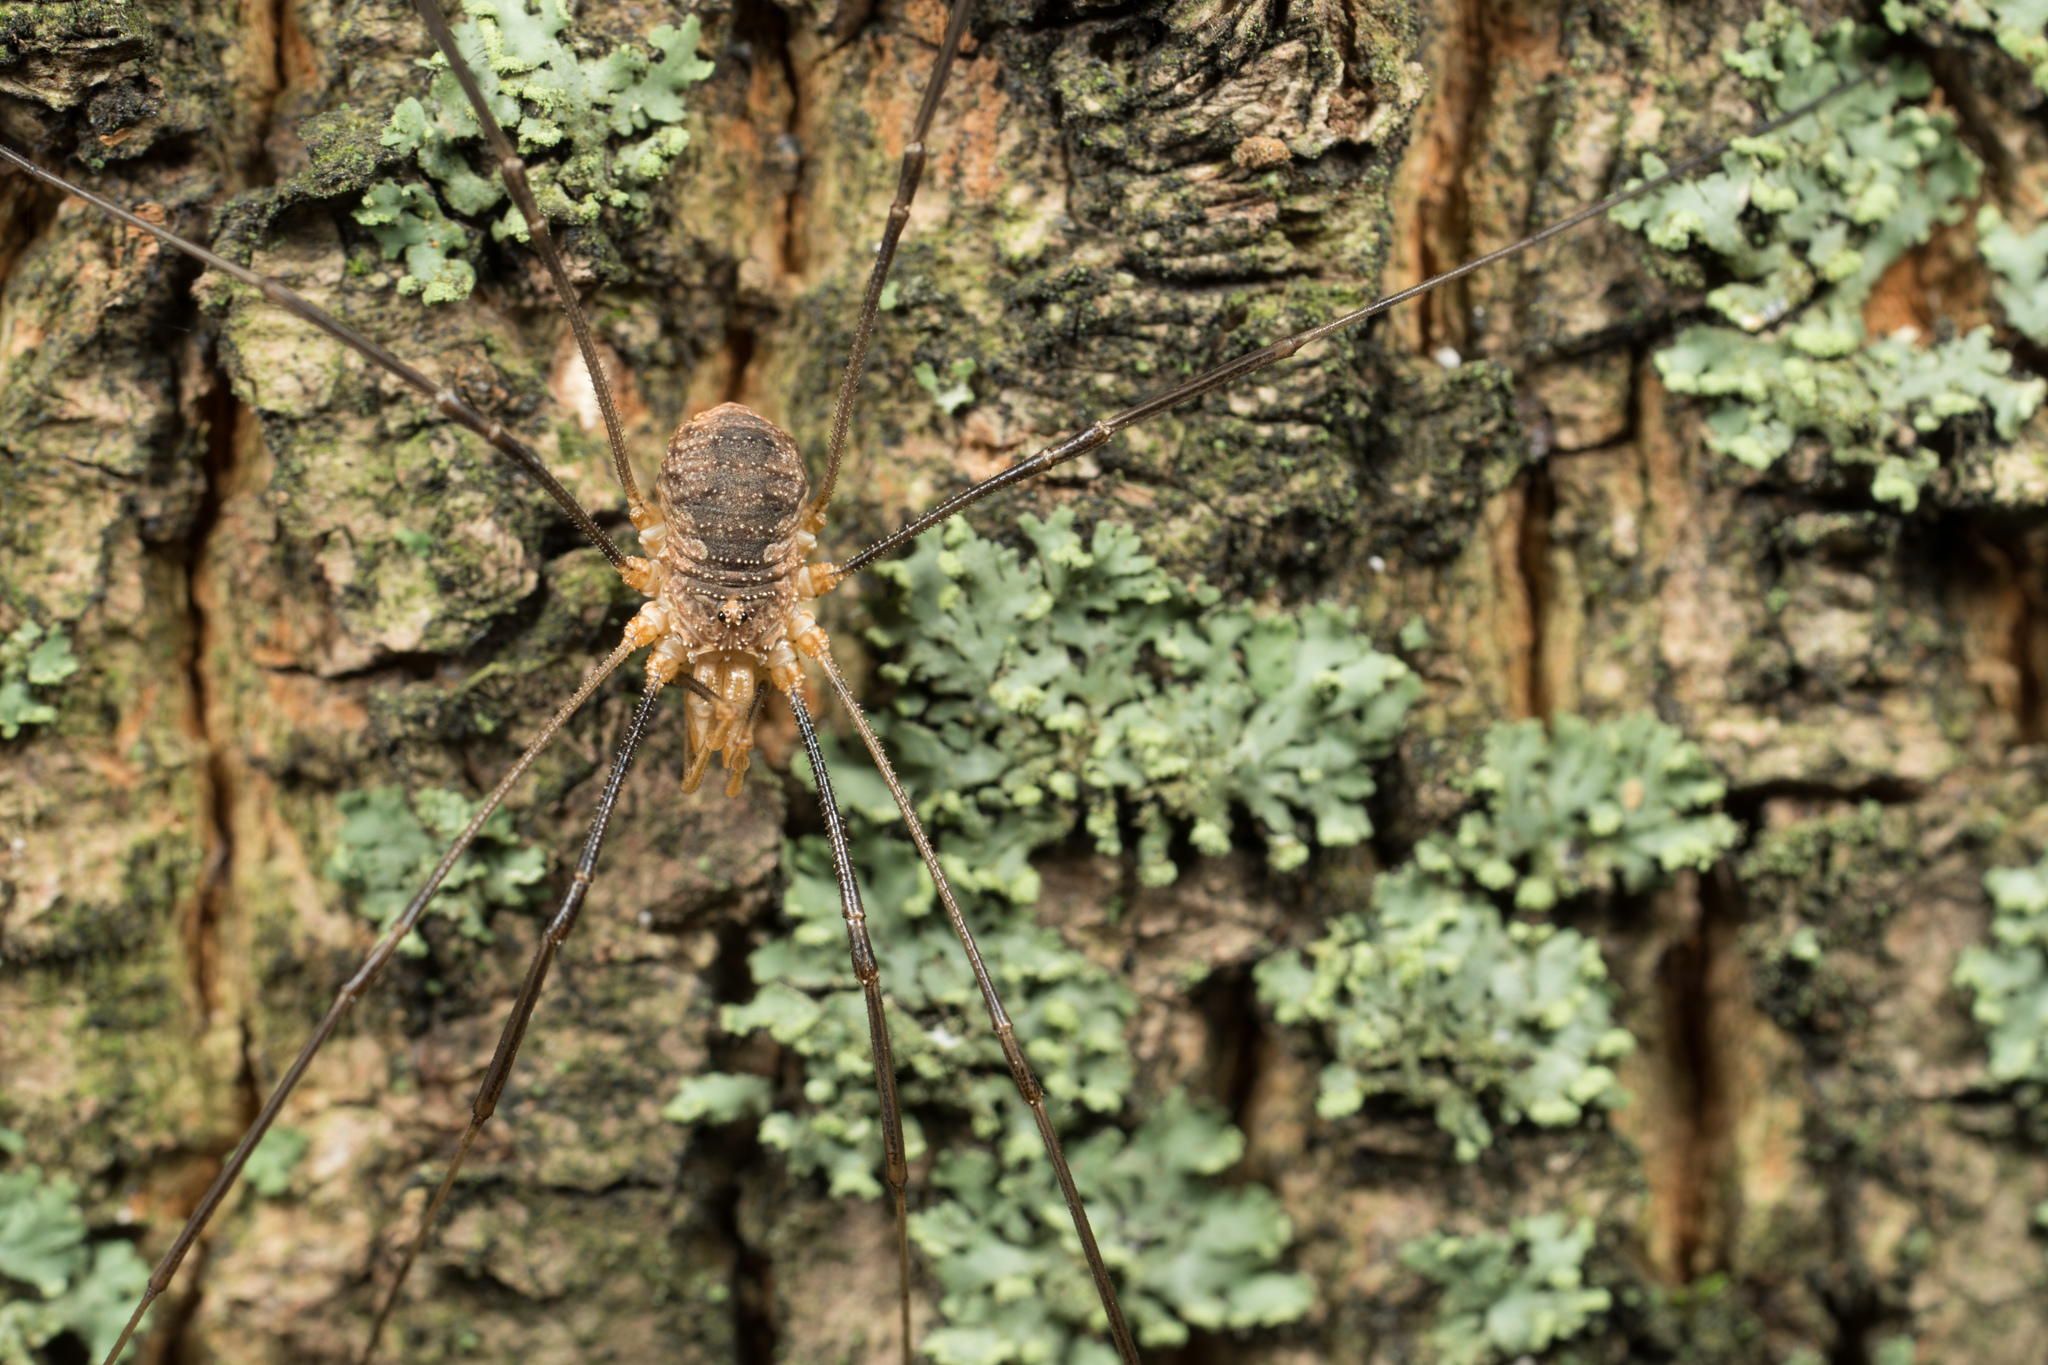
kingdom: Animalia
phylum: Arthropoda
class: Arachnida
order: Opiliones
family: Phalangiidae
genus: Phalangium
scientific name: Phalangium opilio
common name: Daddy longleg
